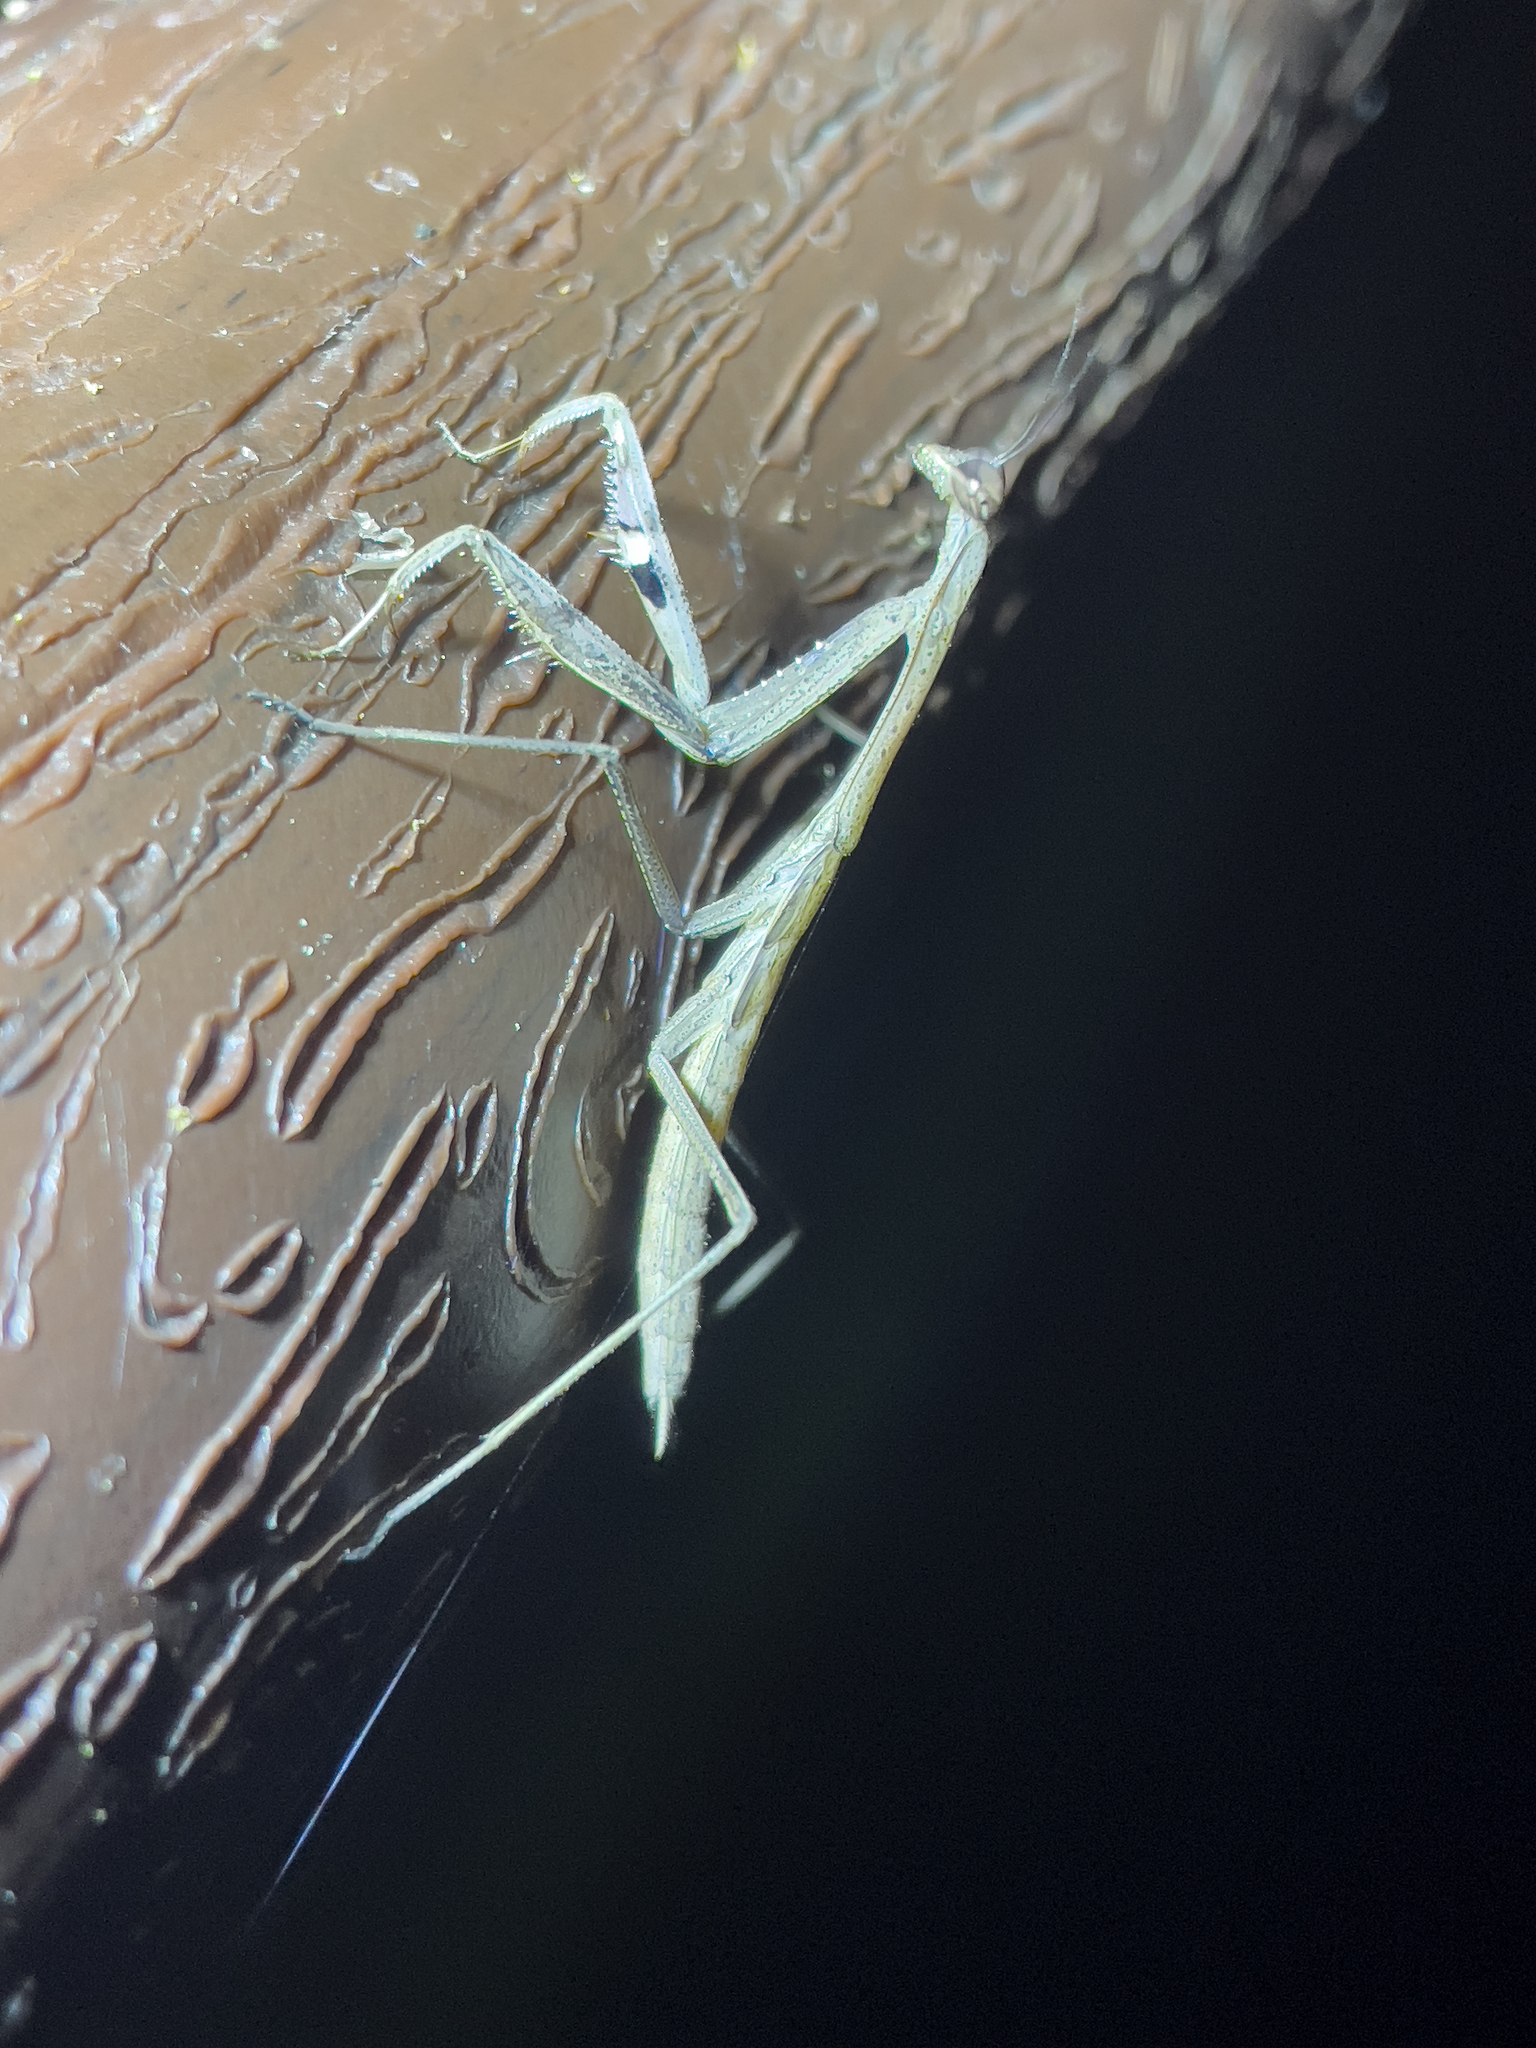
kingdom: Animalia
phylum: Arthropoda
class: Insecta
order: Mantodea
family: Mantidae
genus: Statilia
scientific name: Statilia nemoralis
